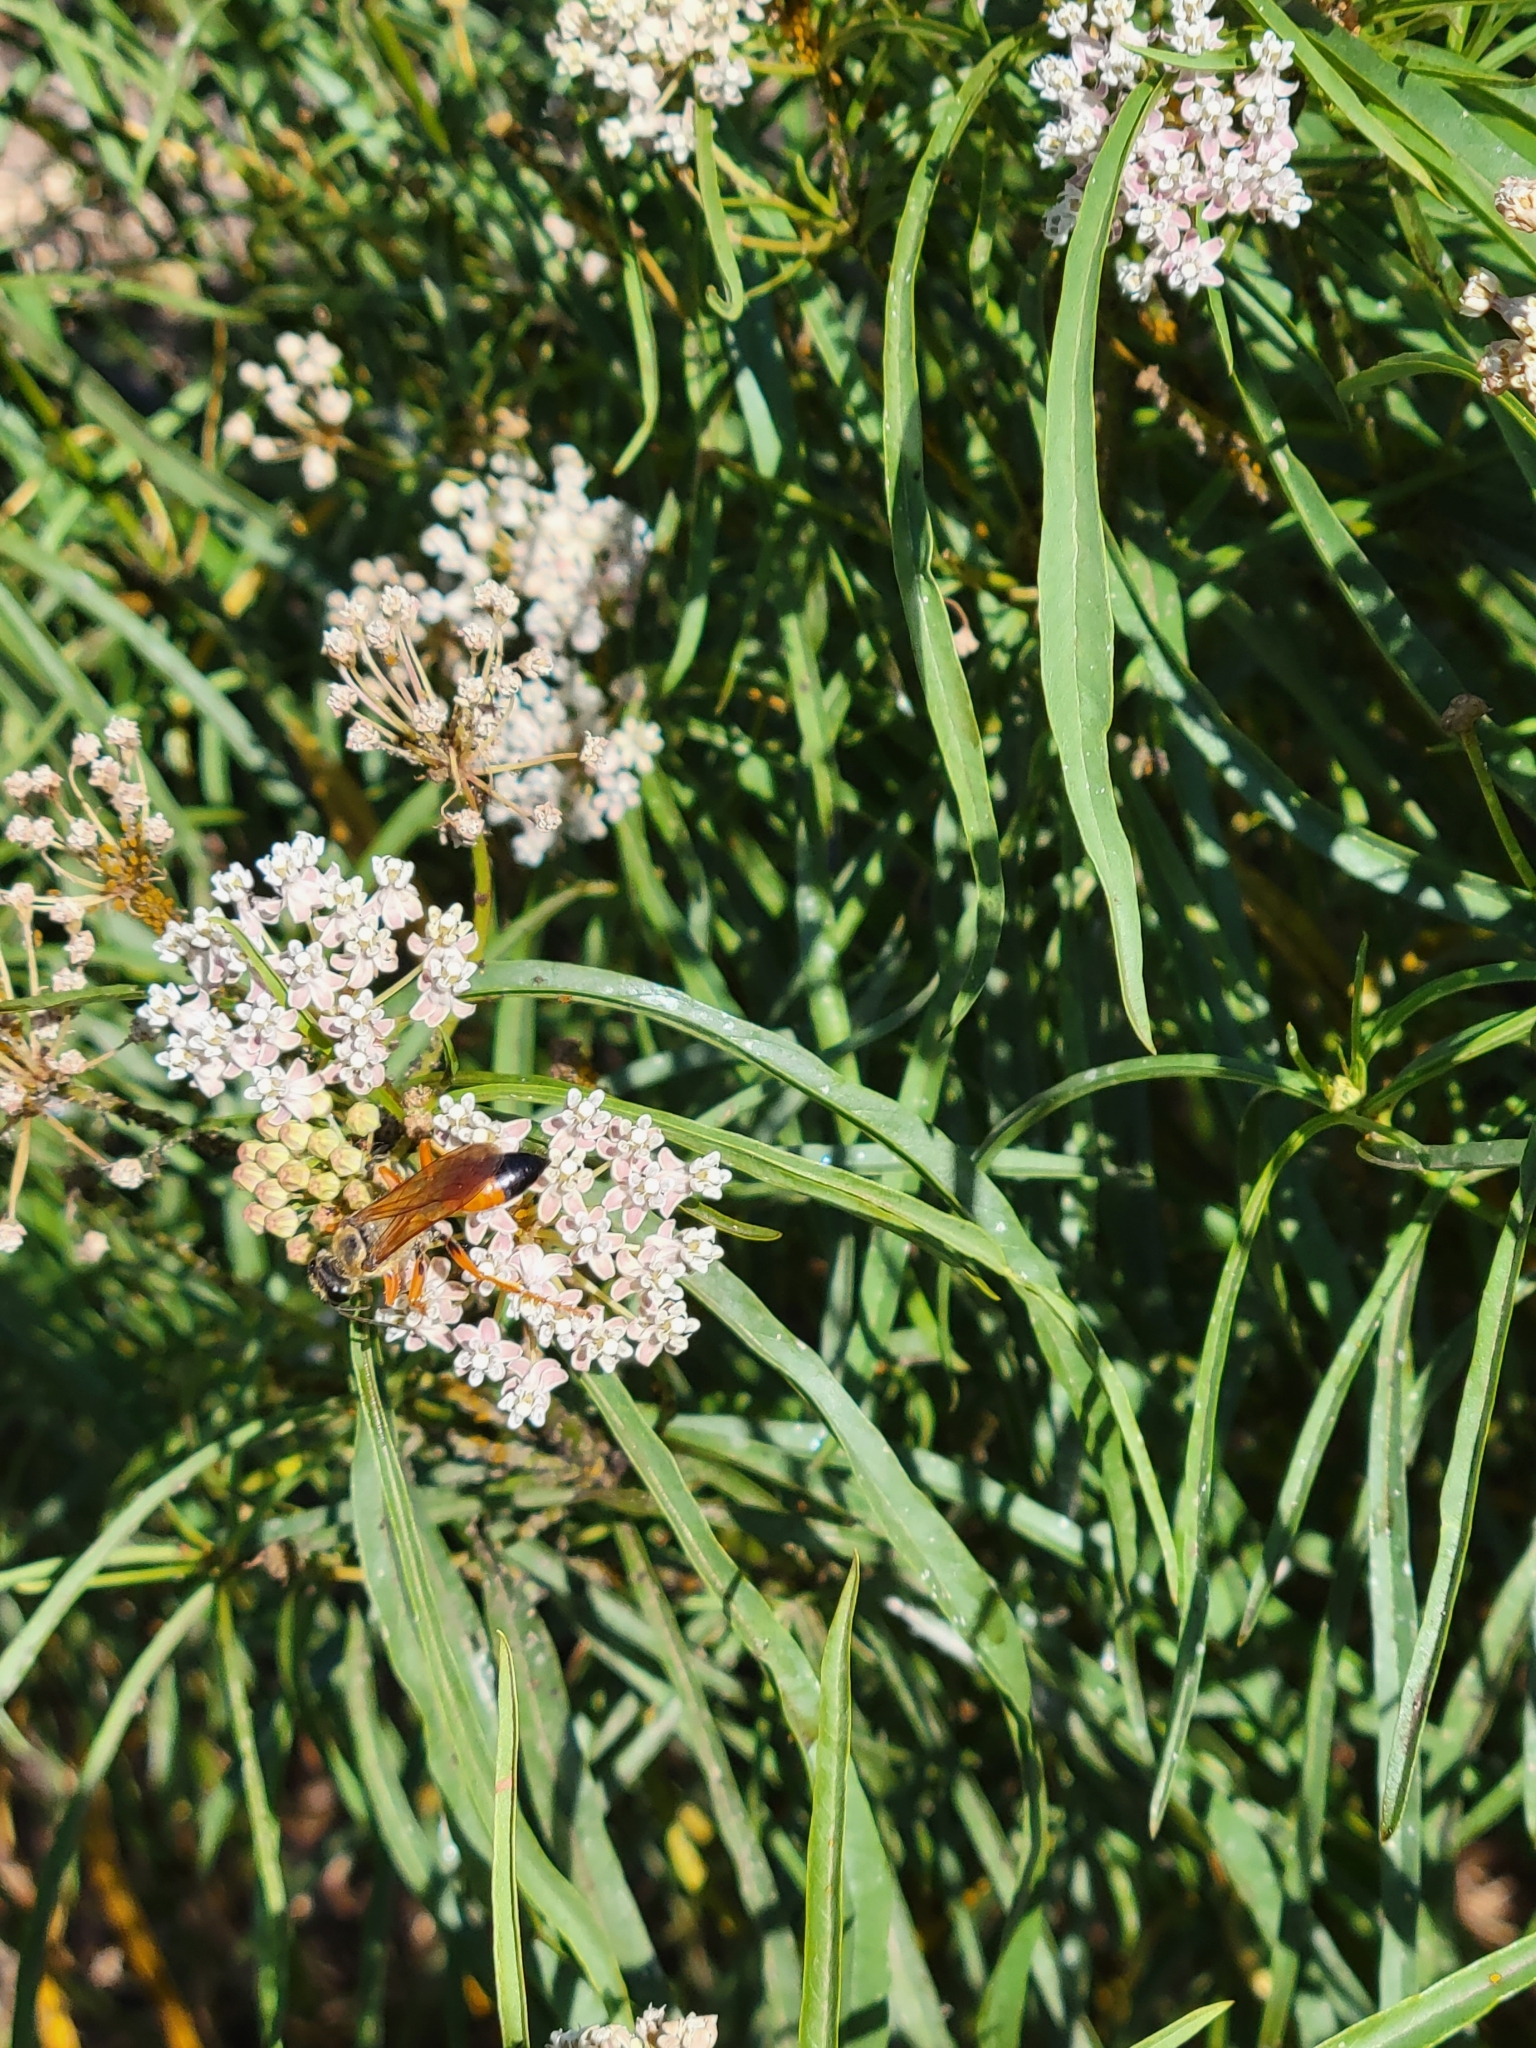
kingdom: Animalia
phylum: Arthropoda
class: Insecta
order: Hymenoptera
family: Sphecidae
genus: Sphex
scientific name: Sphex ichneumoneus
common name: Great golden digger wasp
